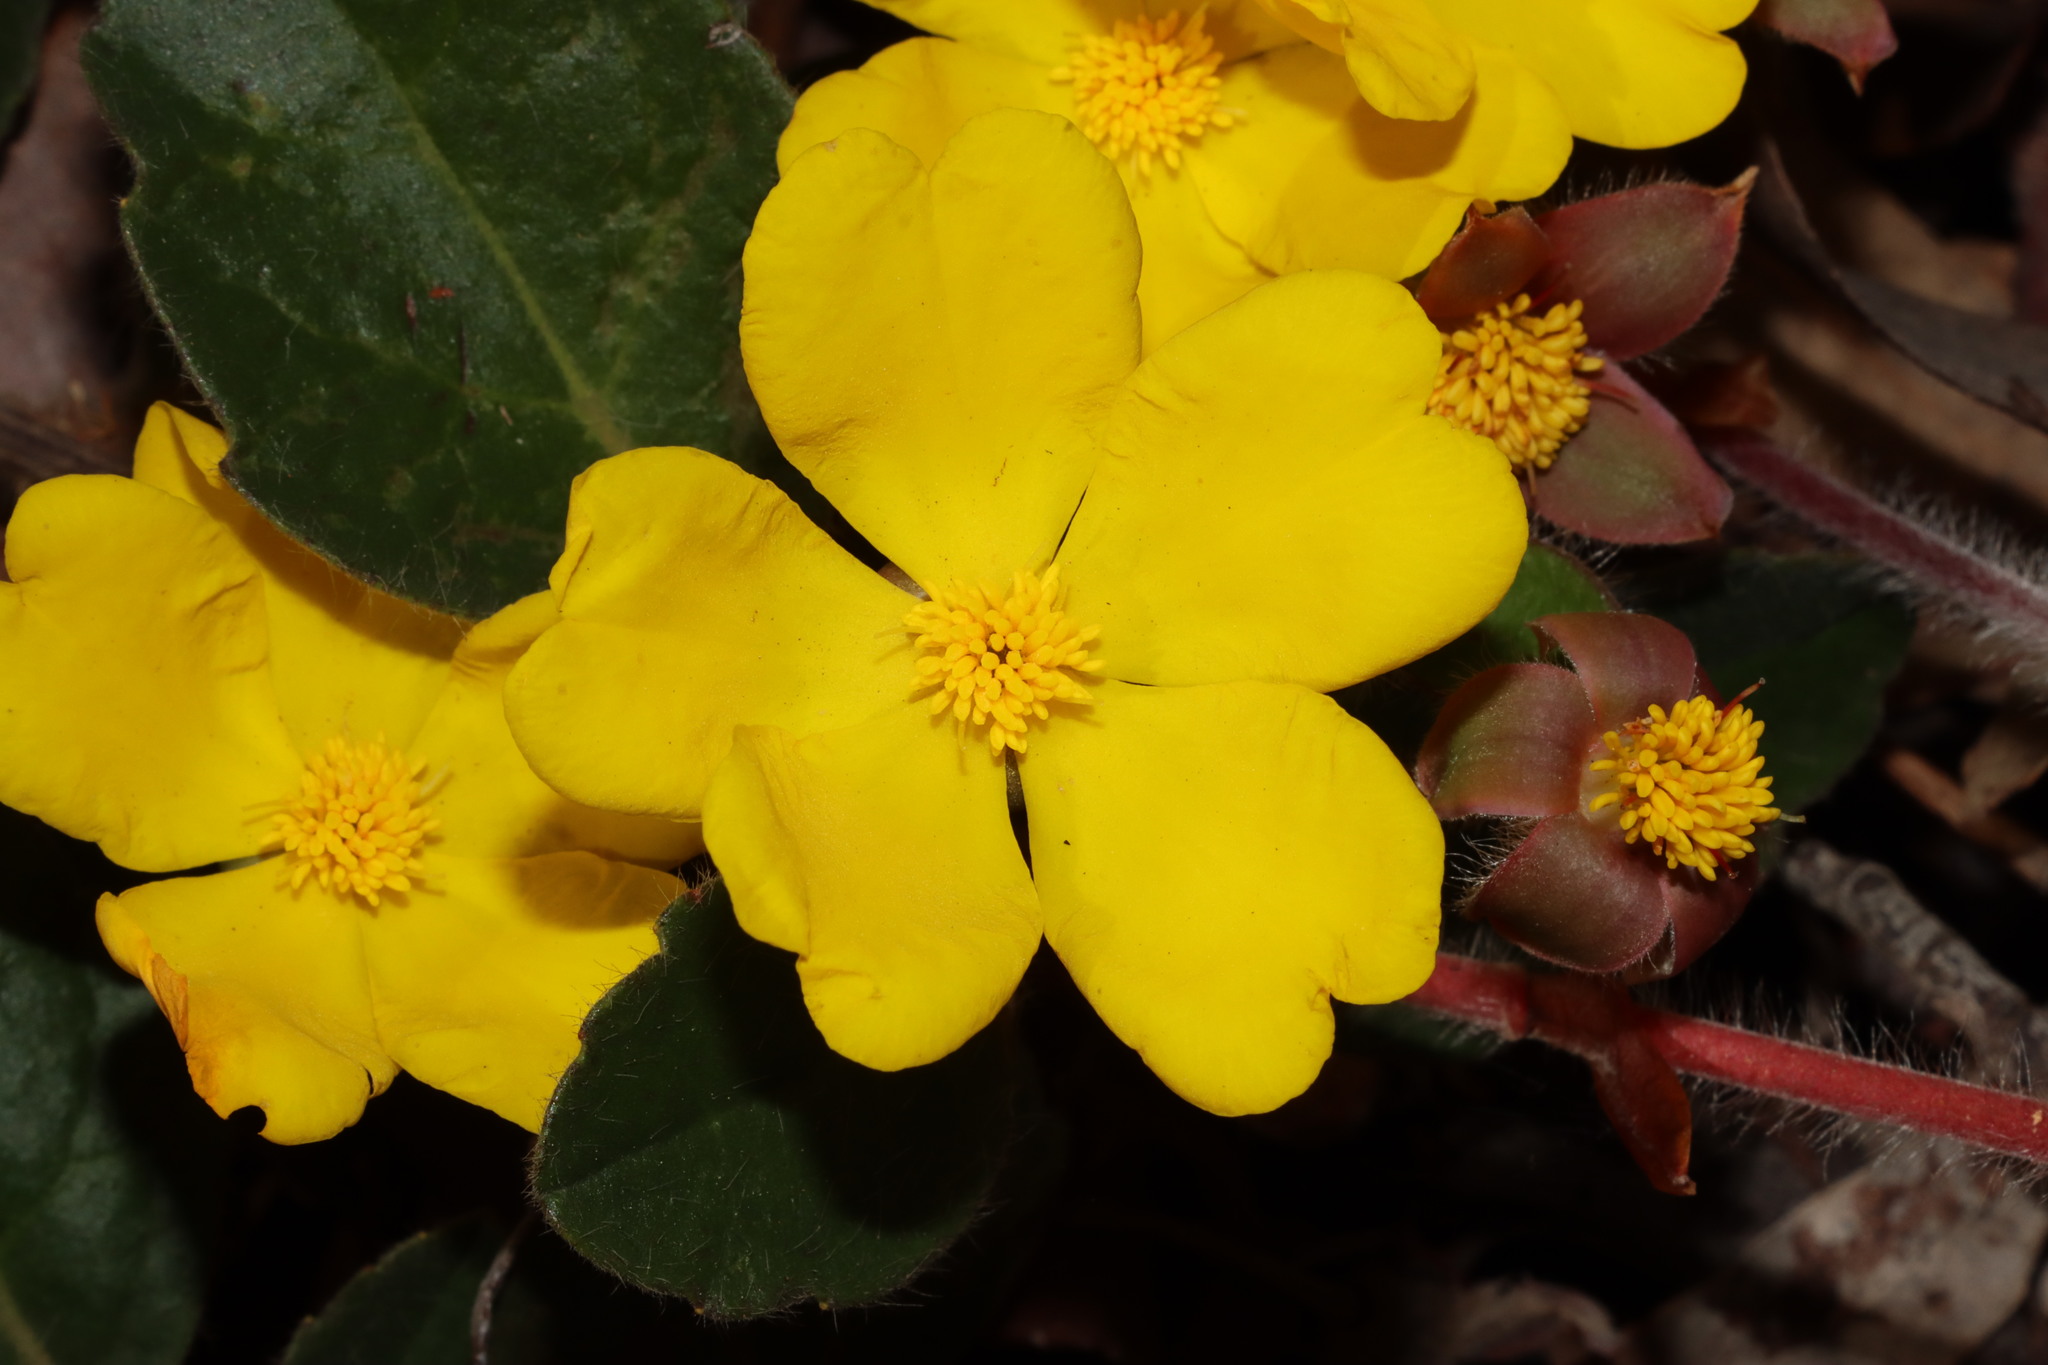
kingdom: Plantae
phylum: Tracheophyta
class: Magnoliopsida
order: Dilleniales
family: Dilleniaceae
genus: Hibbertia
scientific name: Hibbertia lasiopus
